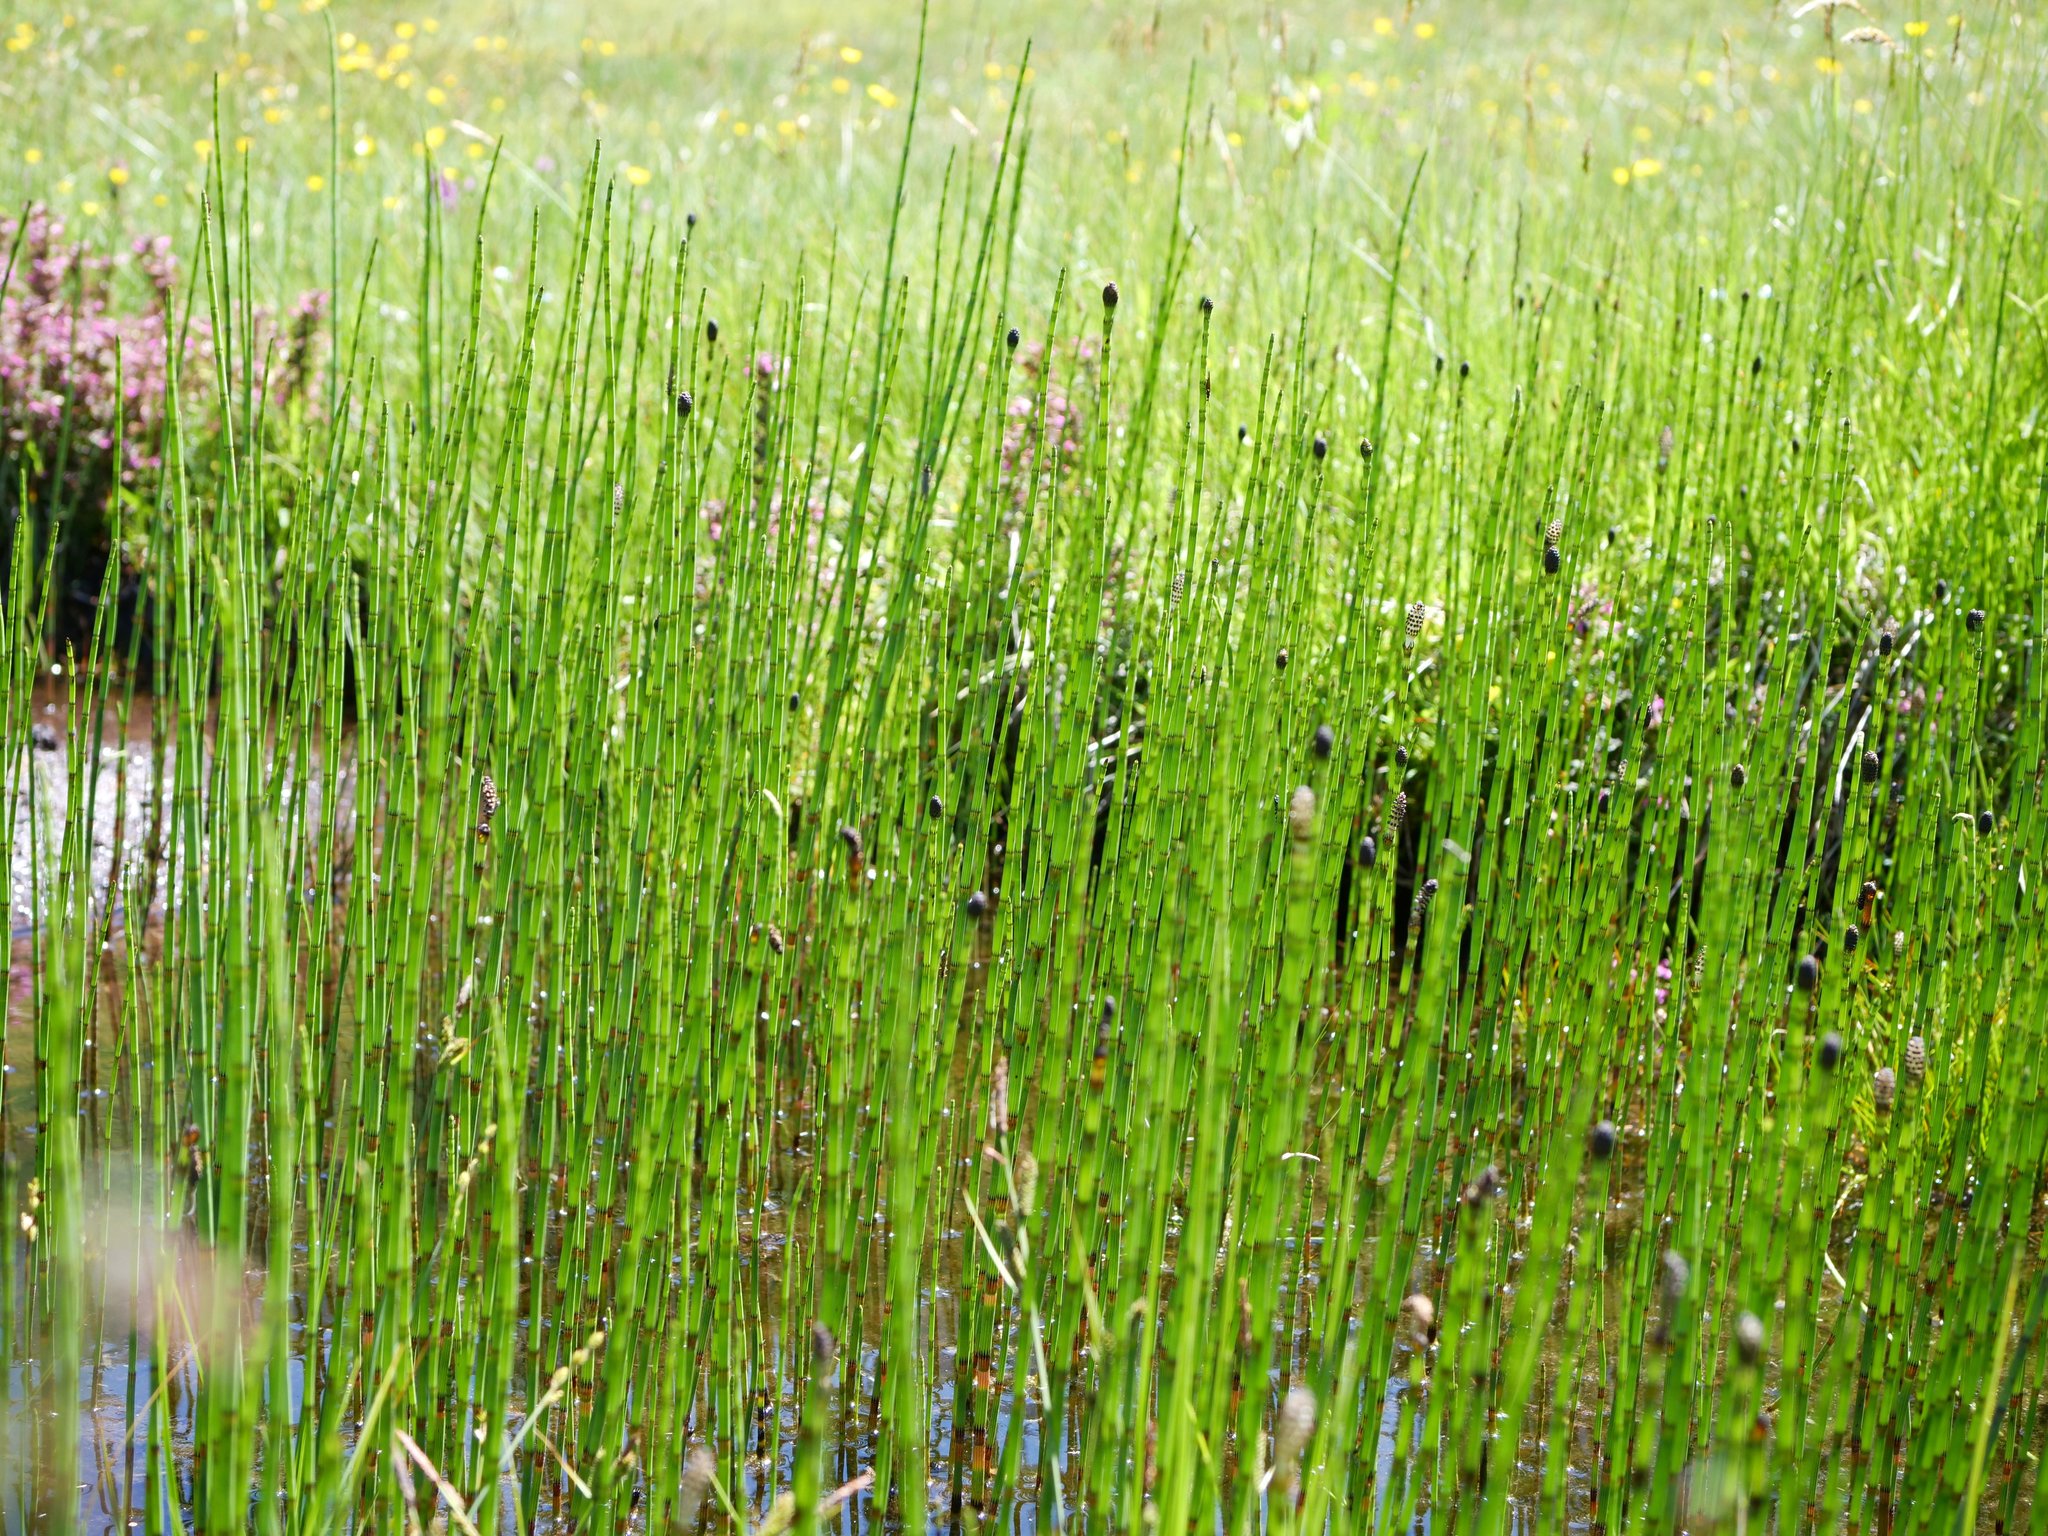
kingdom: Plantae
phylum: Tracheophyta
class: Polypodiopsida
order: Equisetales
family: Equisetaceae
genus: Equisetum
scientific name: Equisetum fluviatile
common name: Water horsetail
